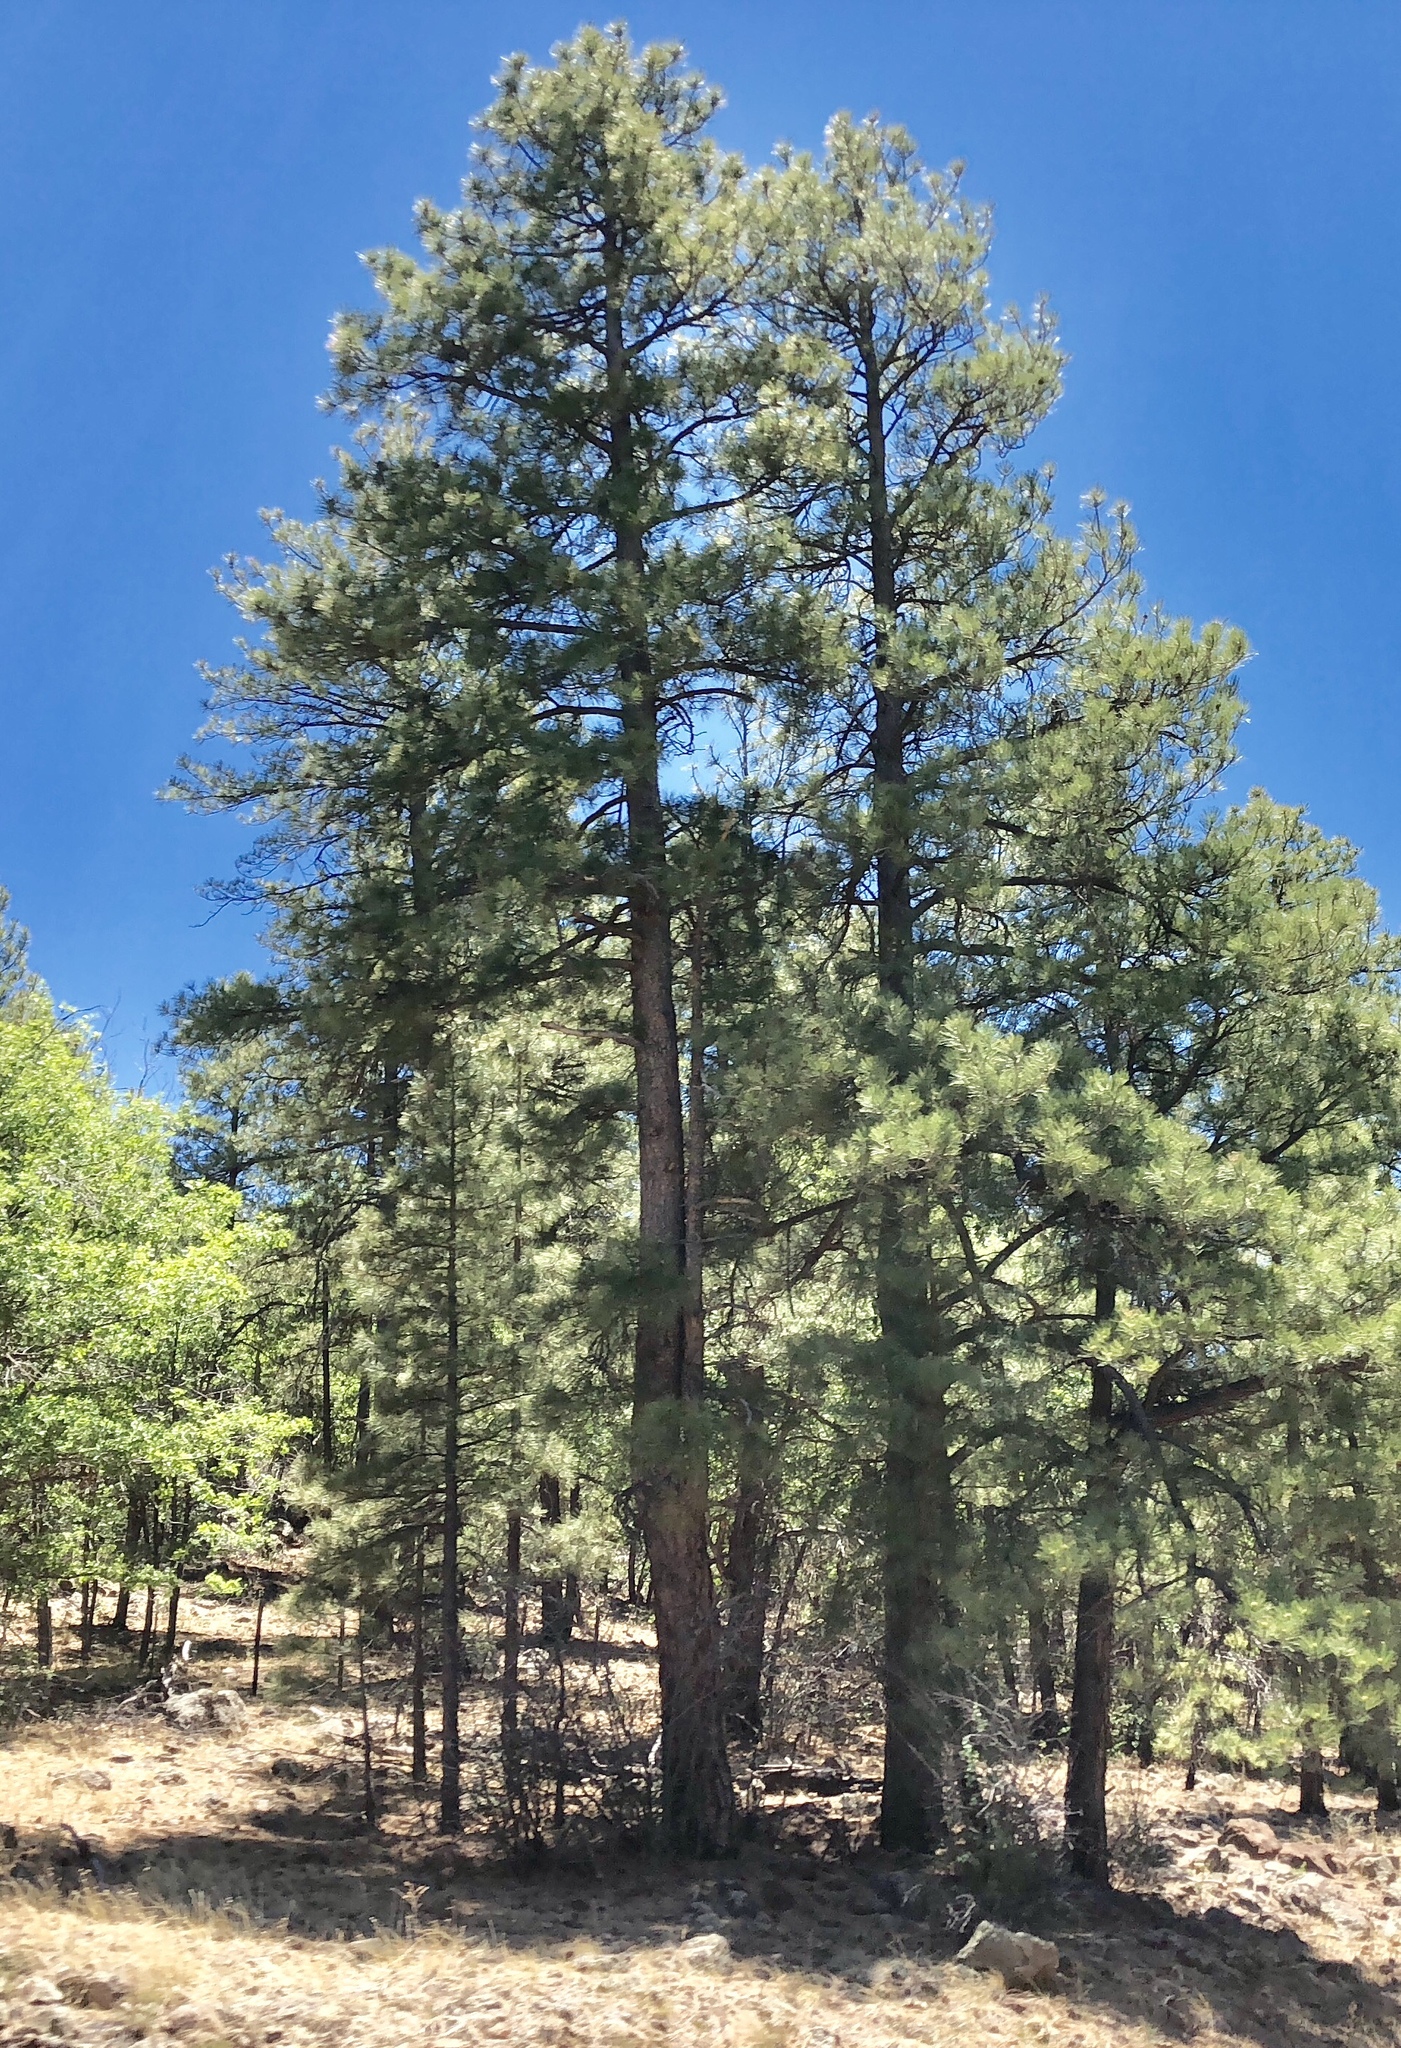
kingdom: Plantae
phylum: Tracheophyta
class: Pinopsida
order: Pinales
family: Pinaceae
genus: Pinus
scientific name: Pinus ponderosa
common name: Western yellow-pine
